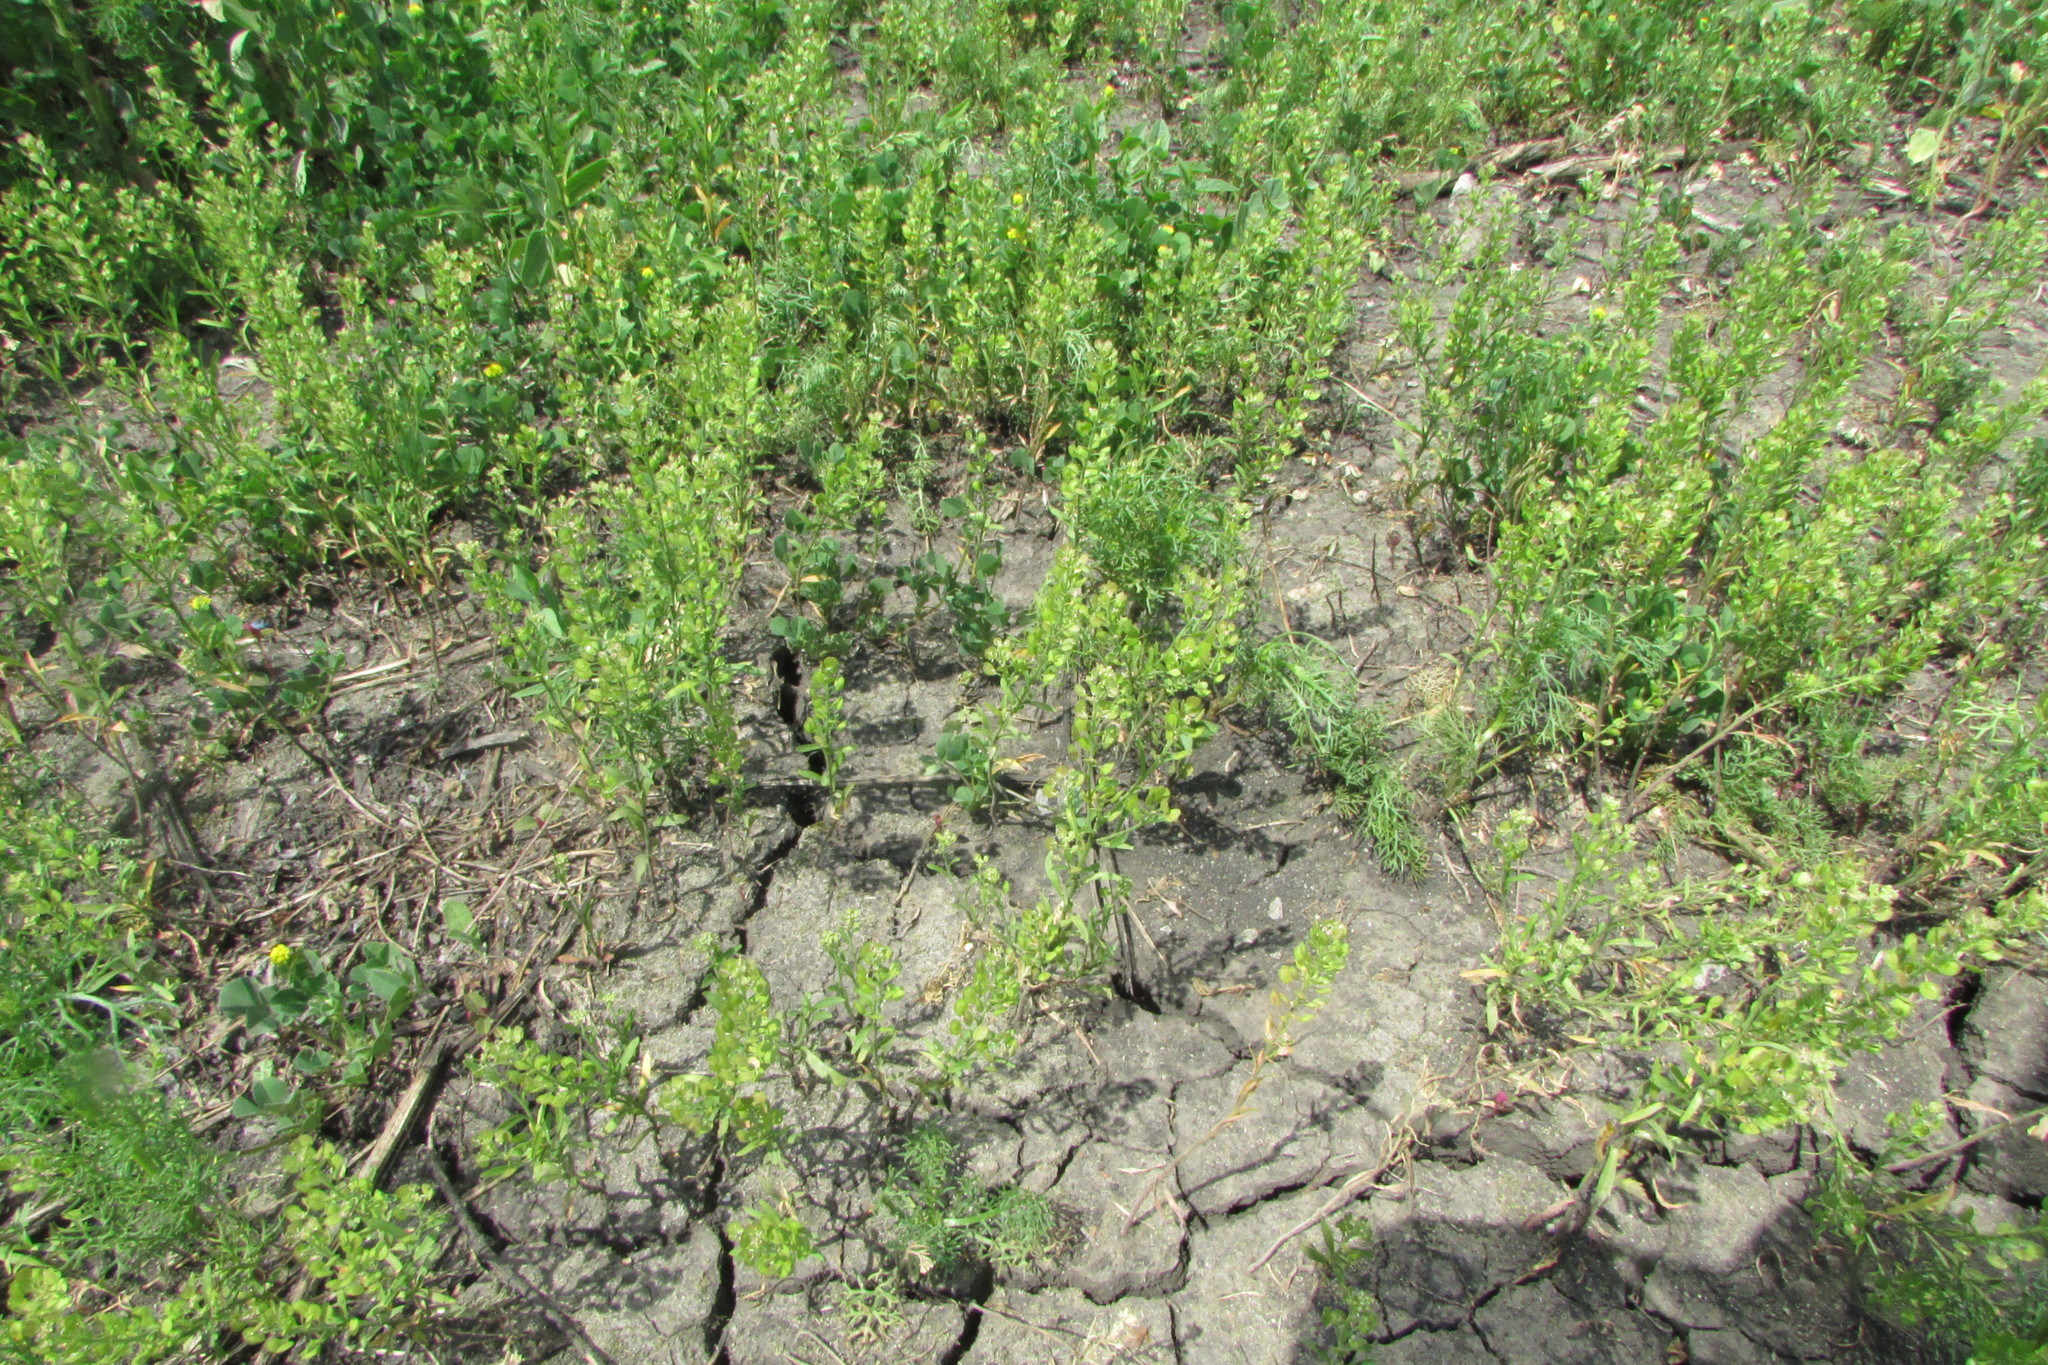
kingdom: Plantae
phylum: Tracheophyta
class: Magnoliopsida
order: Brassicales
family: Brassicaceae
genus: Lepidium
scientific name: Lepidium densiflorum
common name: Miner's pepperwort
